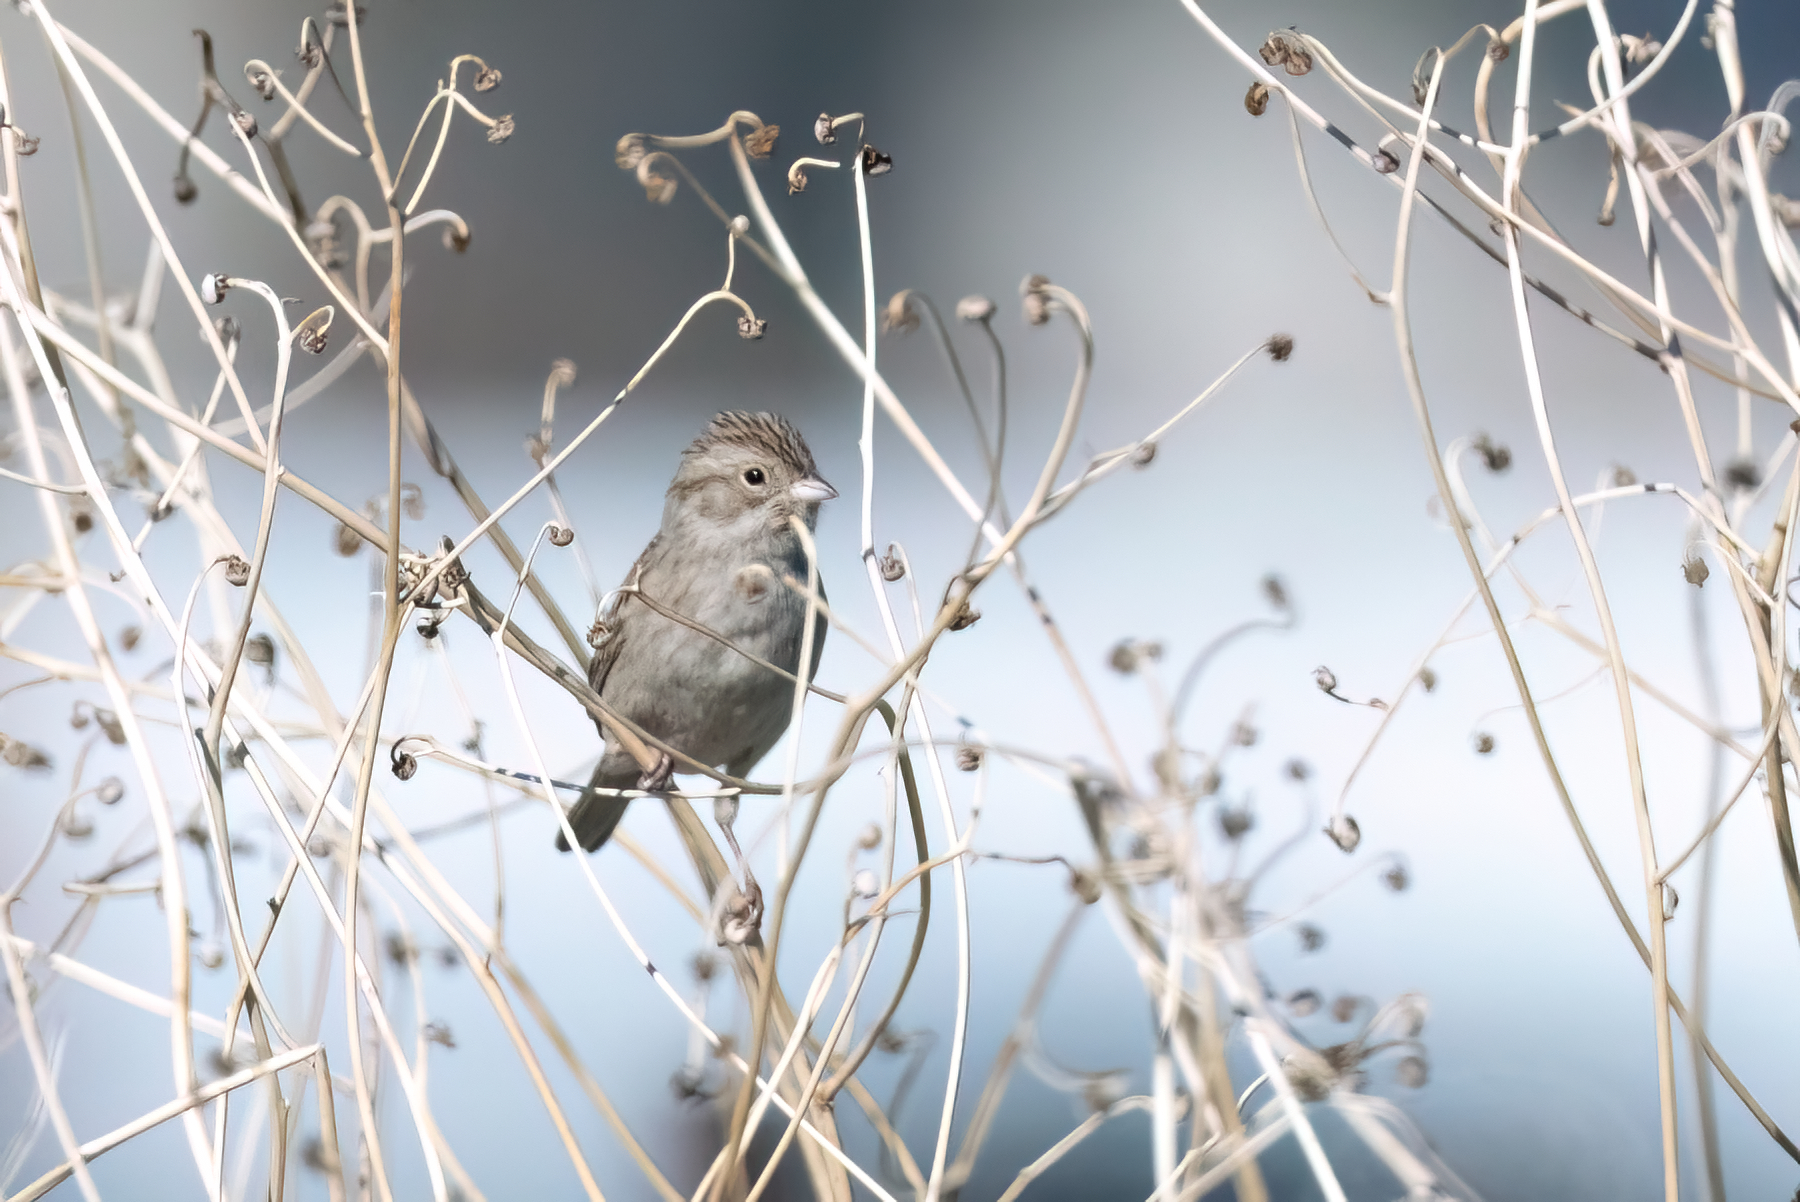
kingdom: Animalia
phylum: Chordata
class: Aves
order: Passeriformes
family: Passerellidae
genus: Spizella
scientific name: Spizella breweri
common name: Brewer's sparrow
